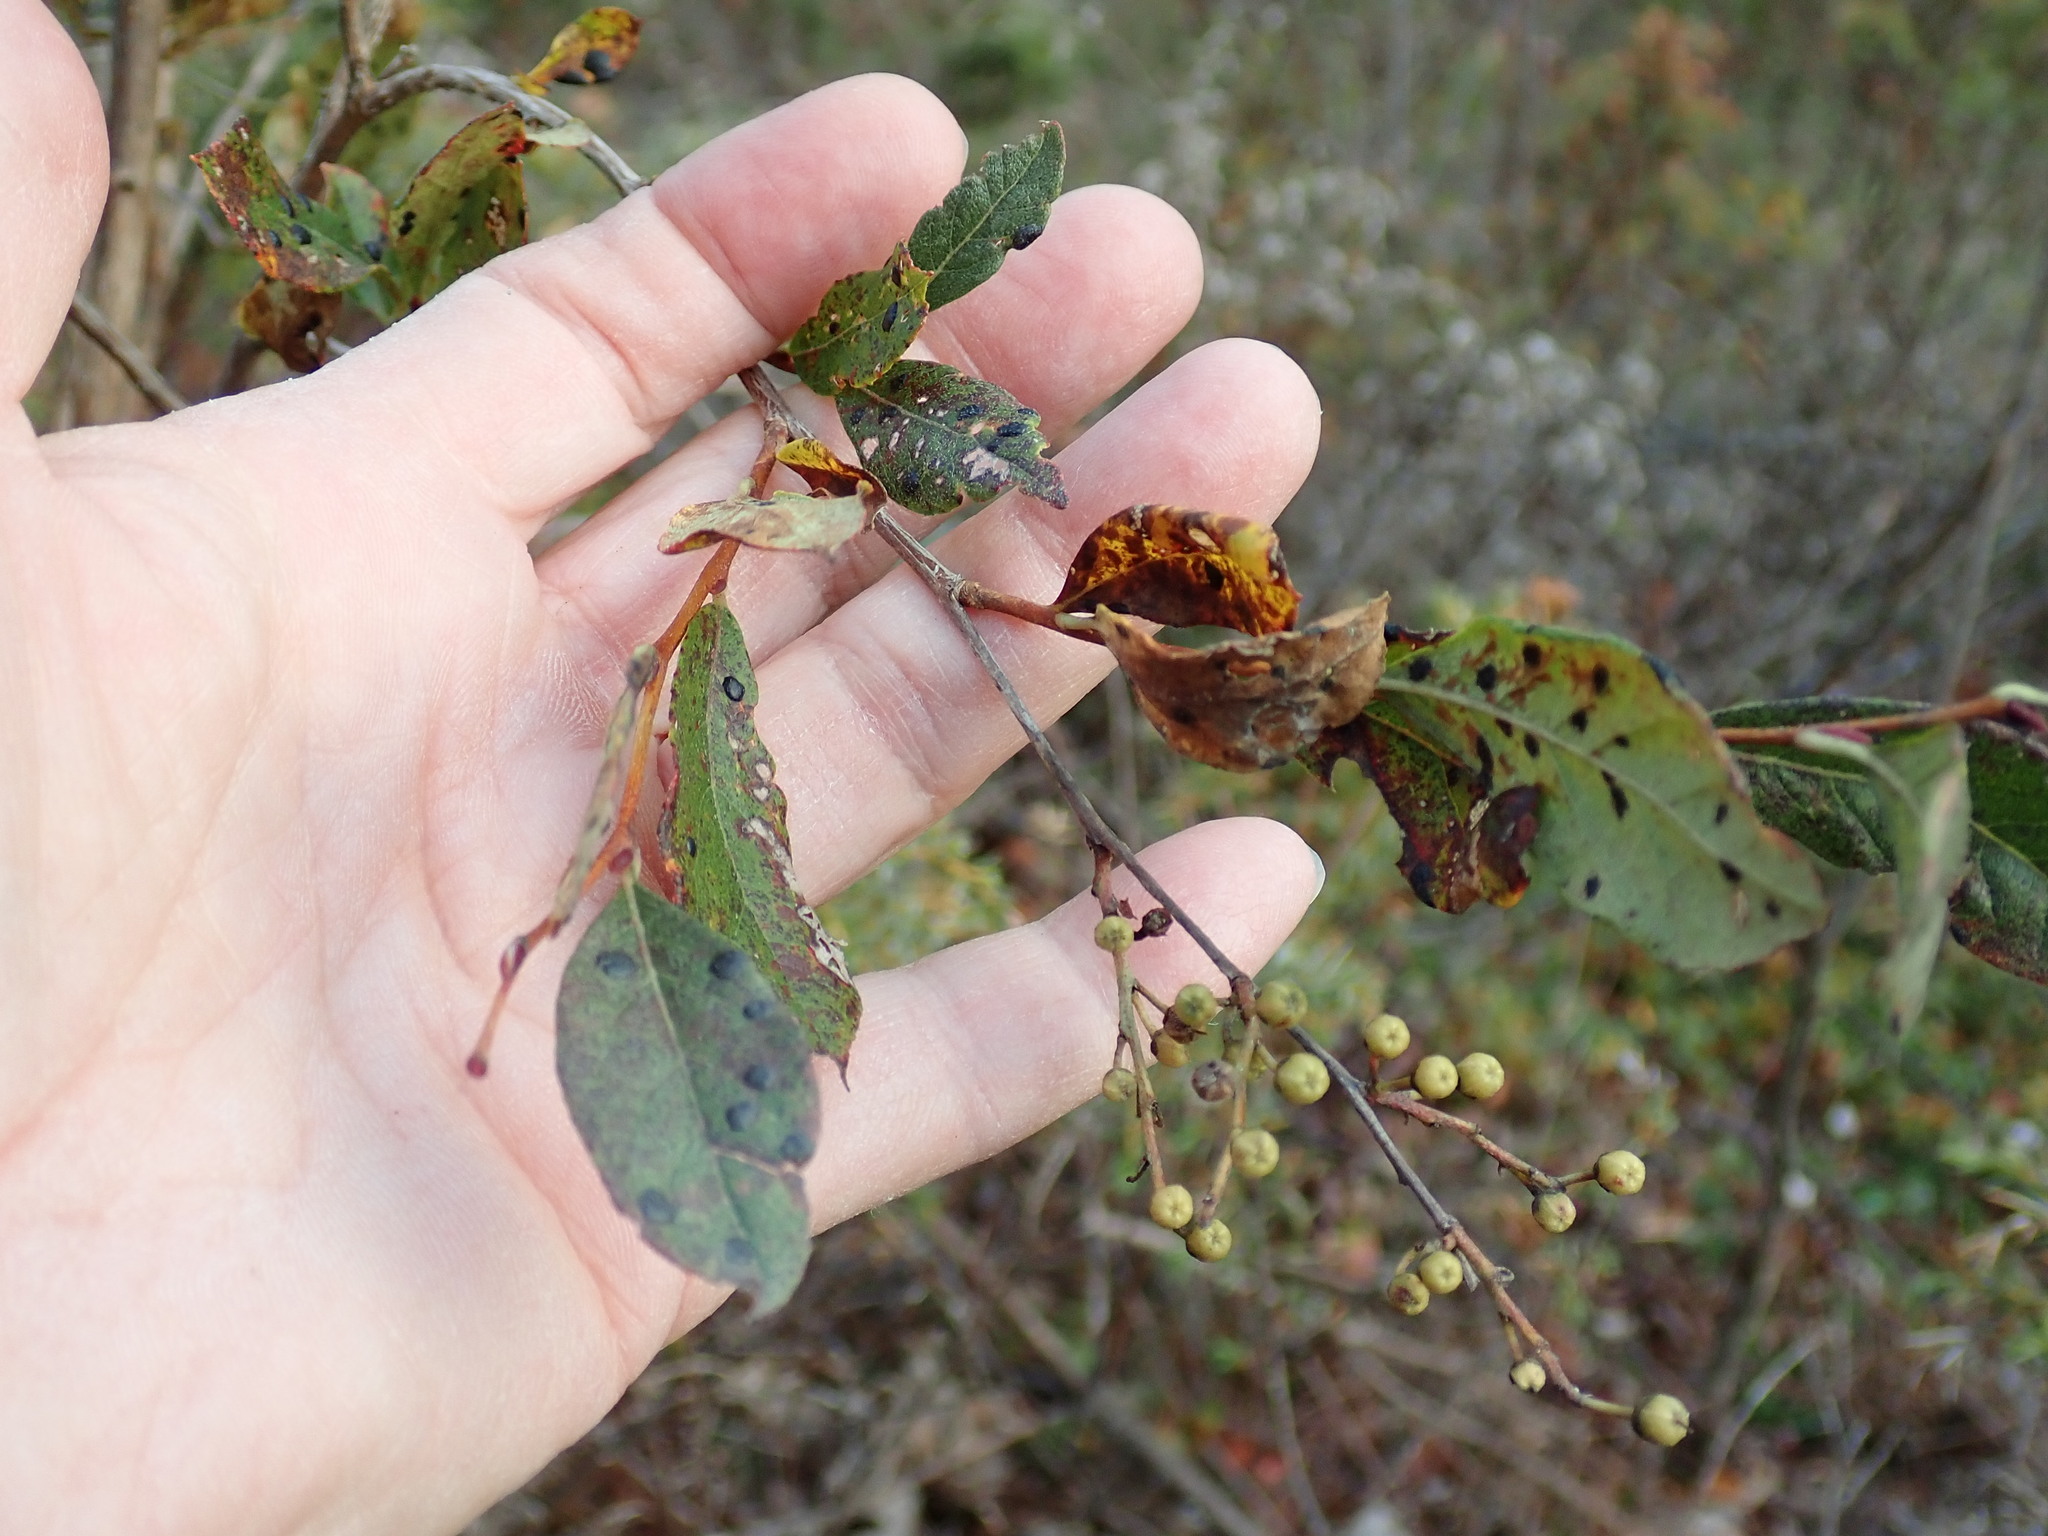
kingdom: Plantae
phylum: Tracheophyta
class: Magnoliopsida
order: Ericales
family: Ericaceae
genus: Lyonia
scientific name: Lyonia ligustrina
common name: Maleberry
